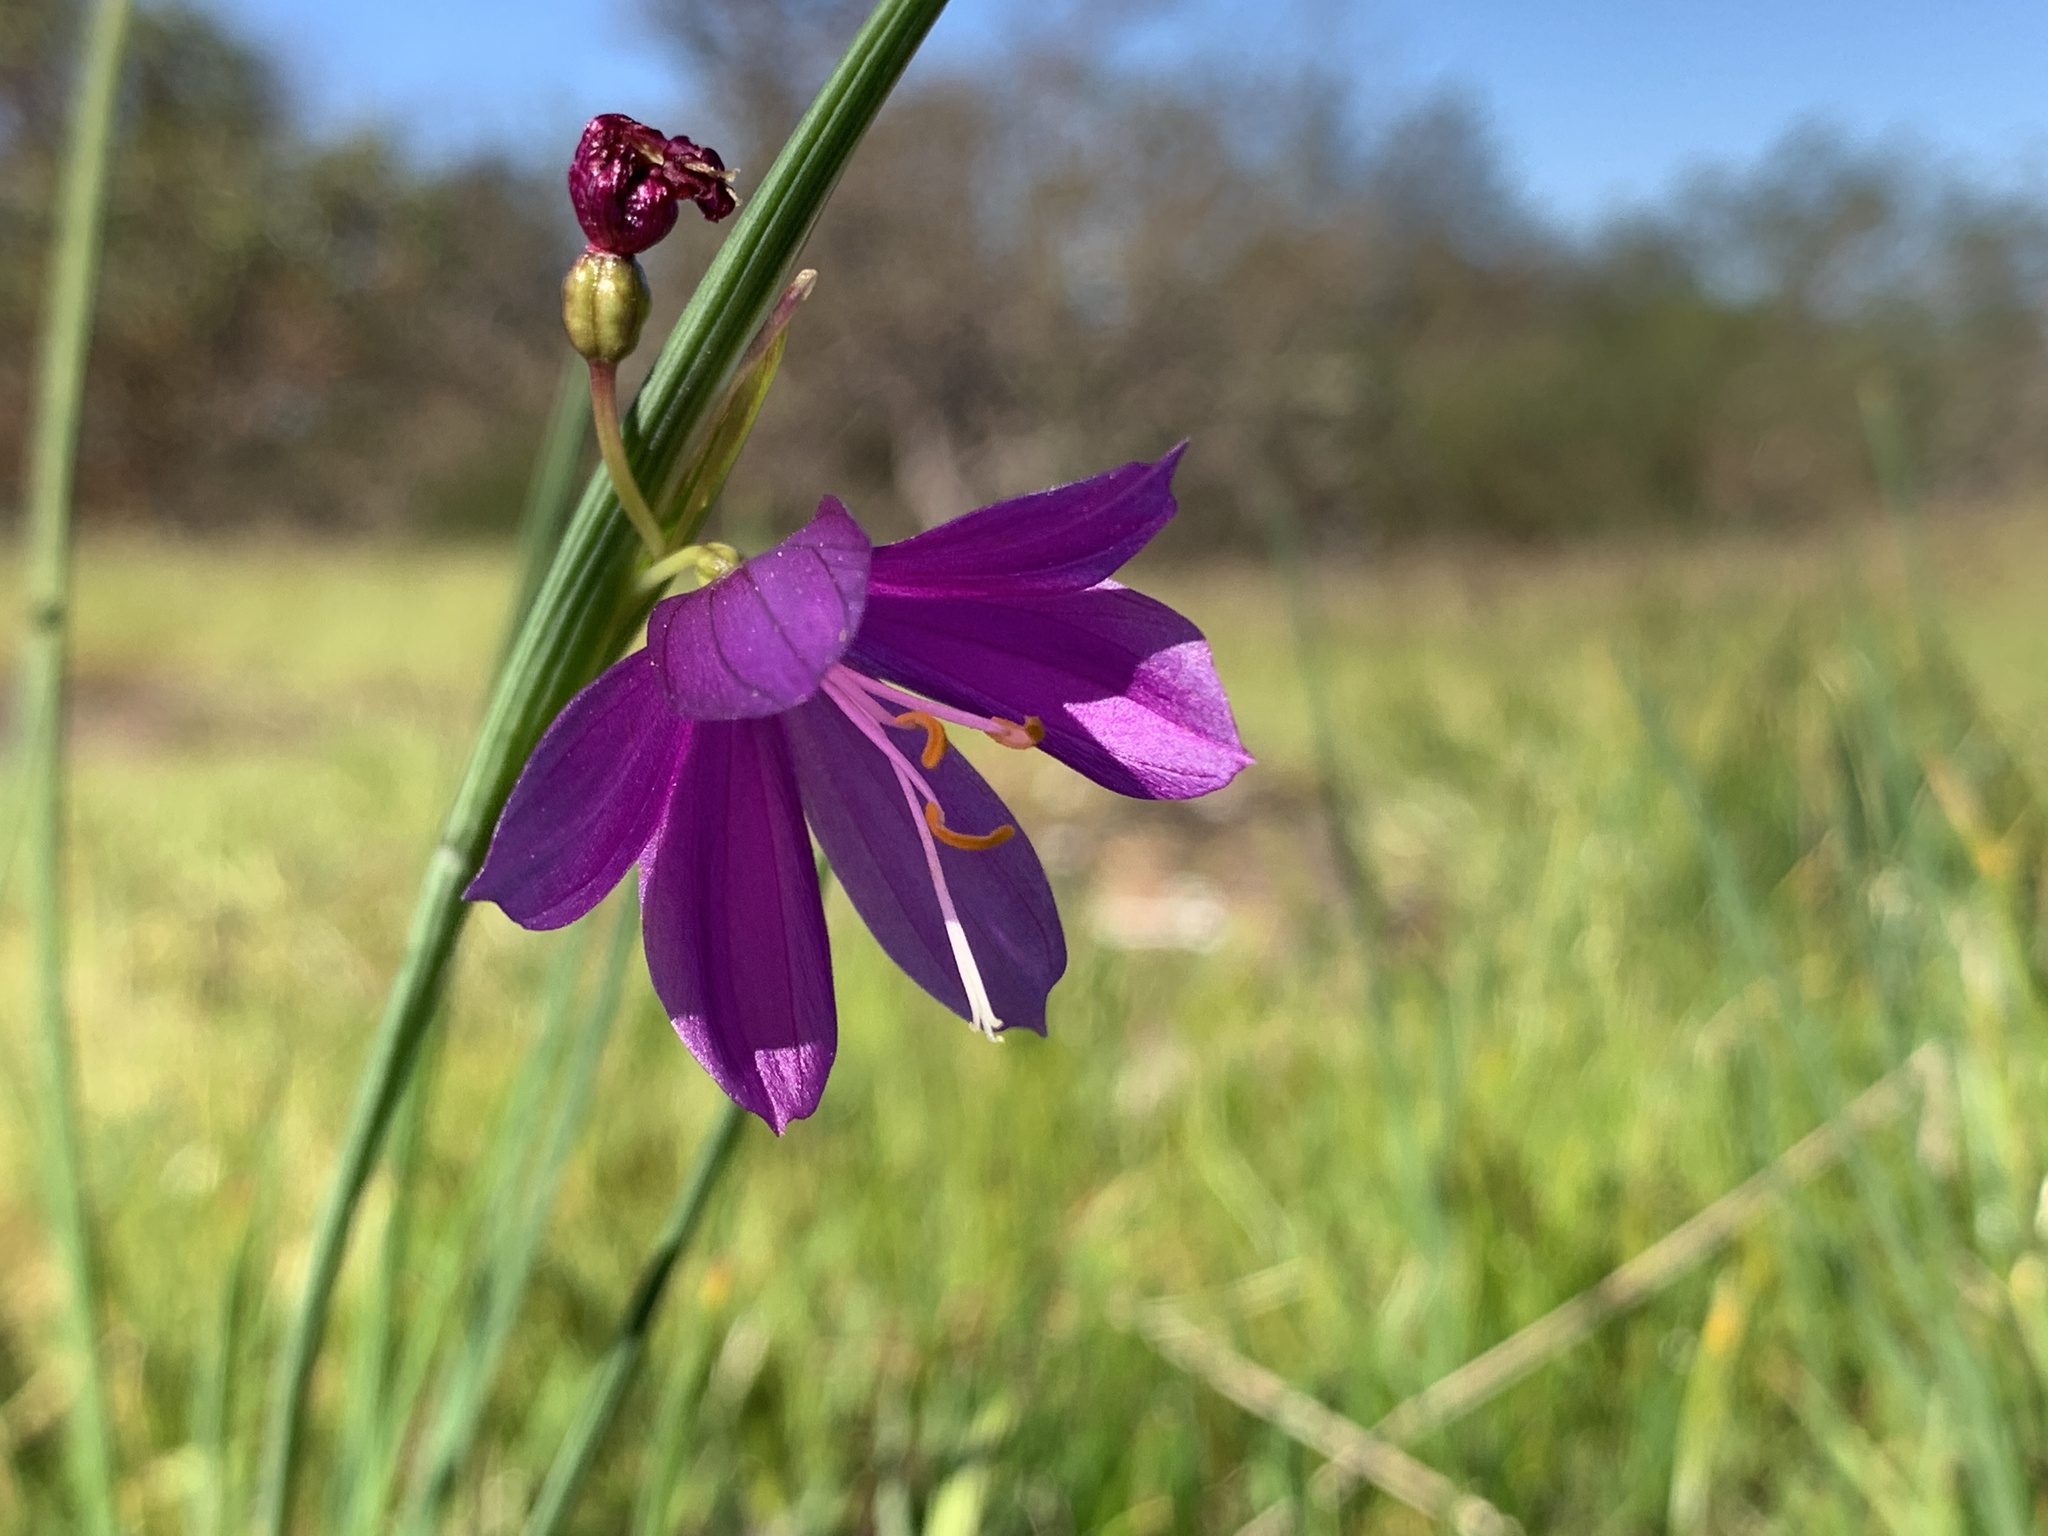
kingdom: Plantae
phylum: Tracheophyta
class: Liliopsida
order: Asparagales
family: Iridaceae
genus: Olsynium
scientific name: Olsynium douglasii
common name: Douglas' grasswidow
